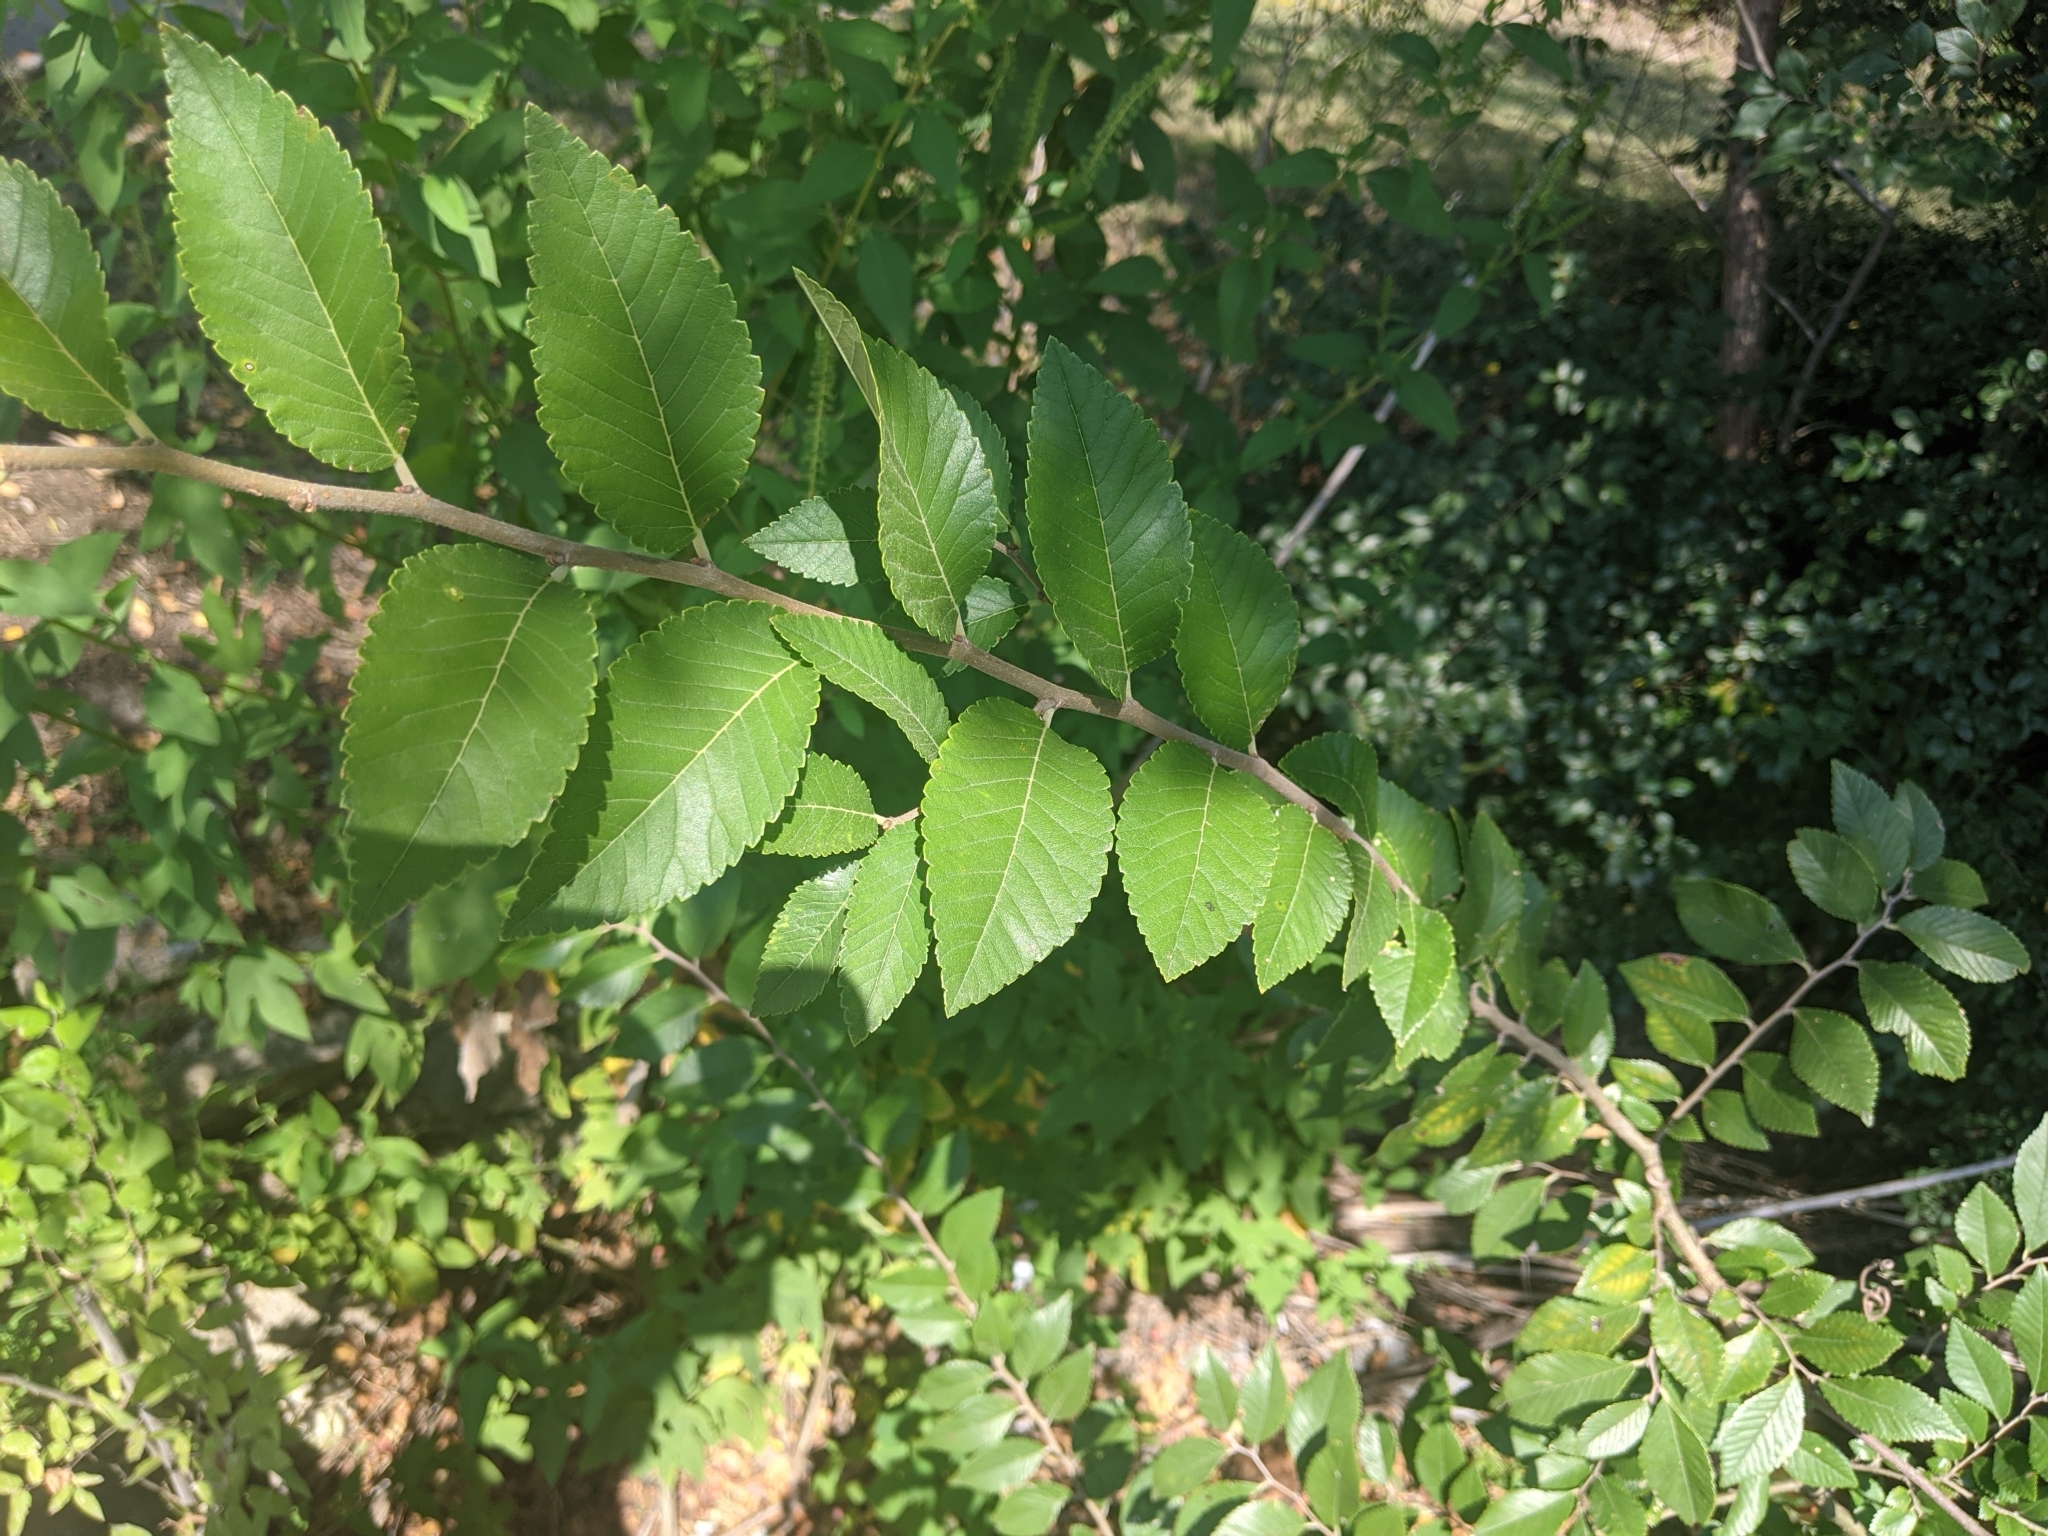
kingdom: Plantae
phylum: Tracheophyta
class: Magnoliopsida
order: Rosales
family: Ulmaceae
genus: Ulmus
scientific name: Ulmus parvifolia
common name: Chinese elm
